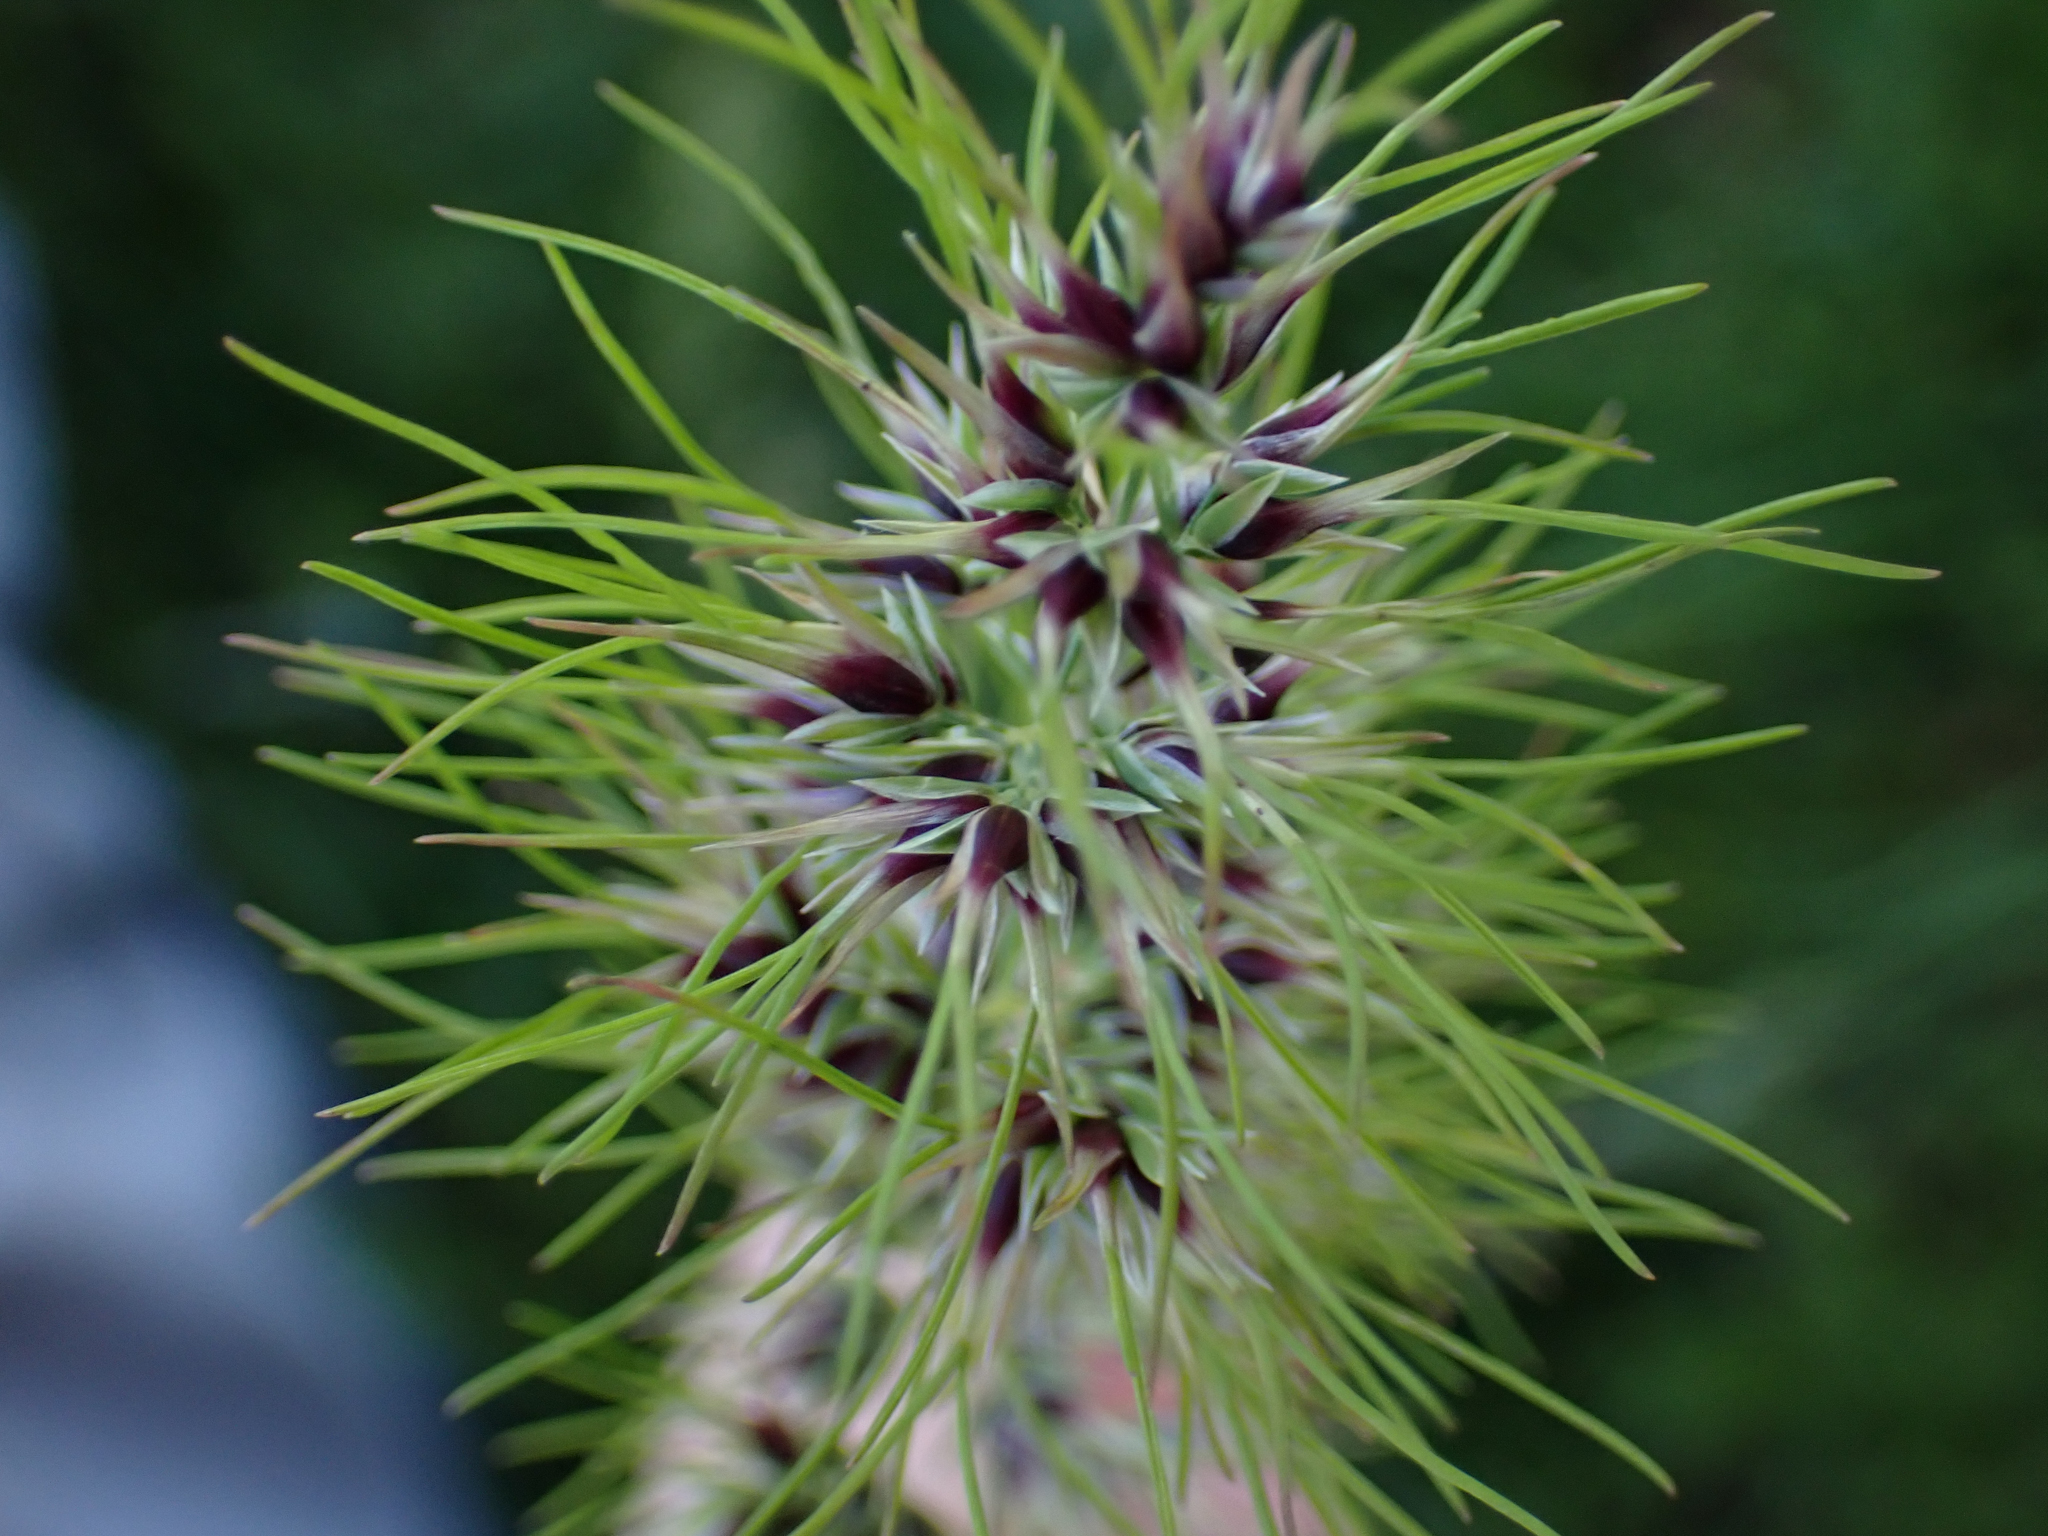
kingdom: Plantae
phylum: Tracheophyta
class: Liliopsida
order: Poales
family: Poaceae
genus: Poa
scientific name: Poa bulbosa
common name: Bulbous bluegrass
